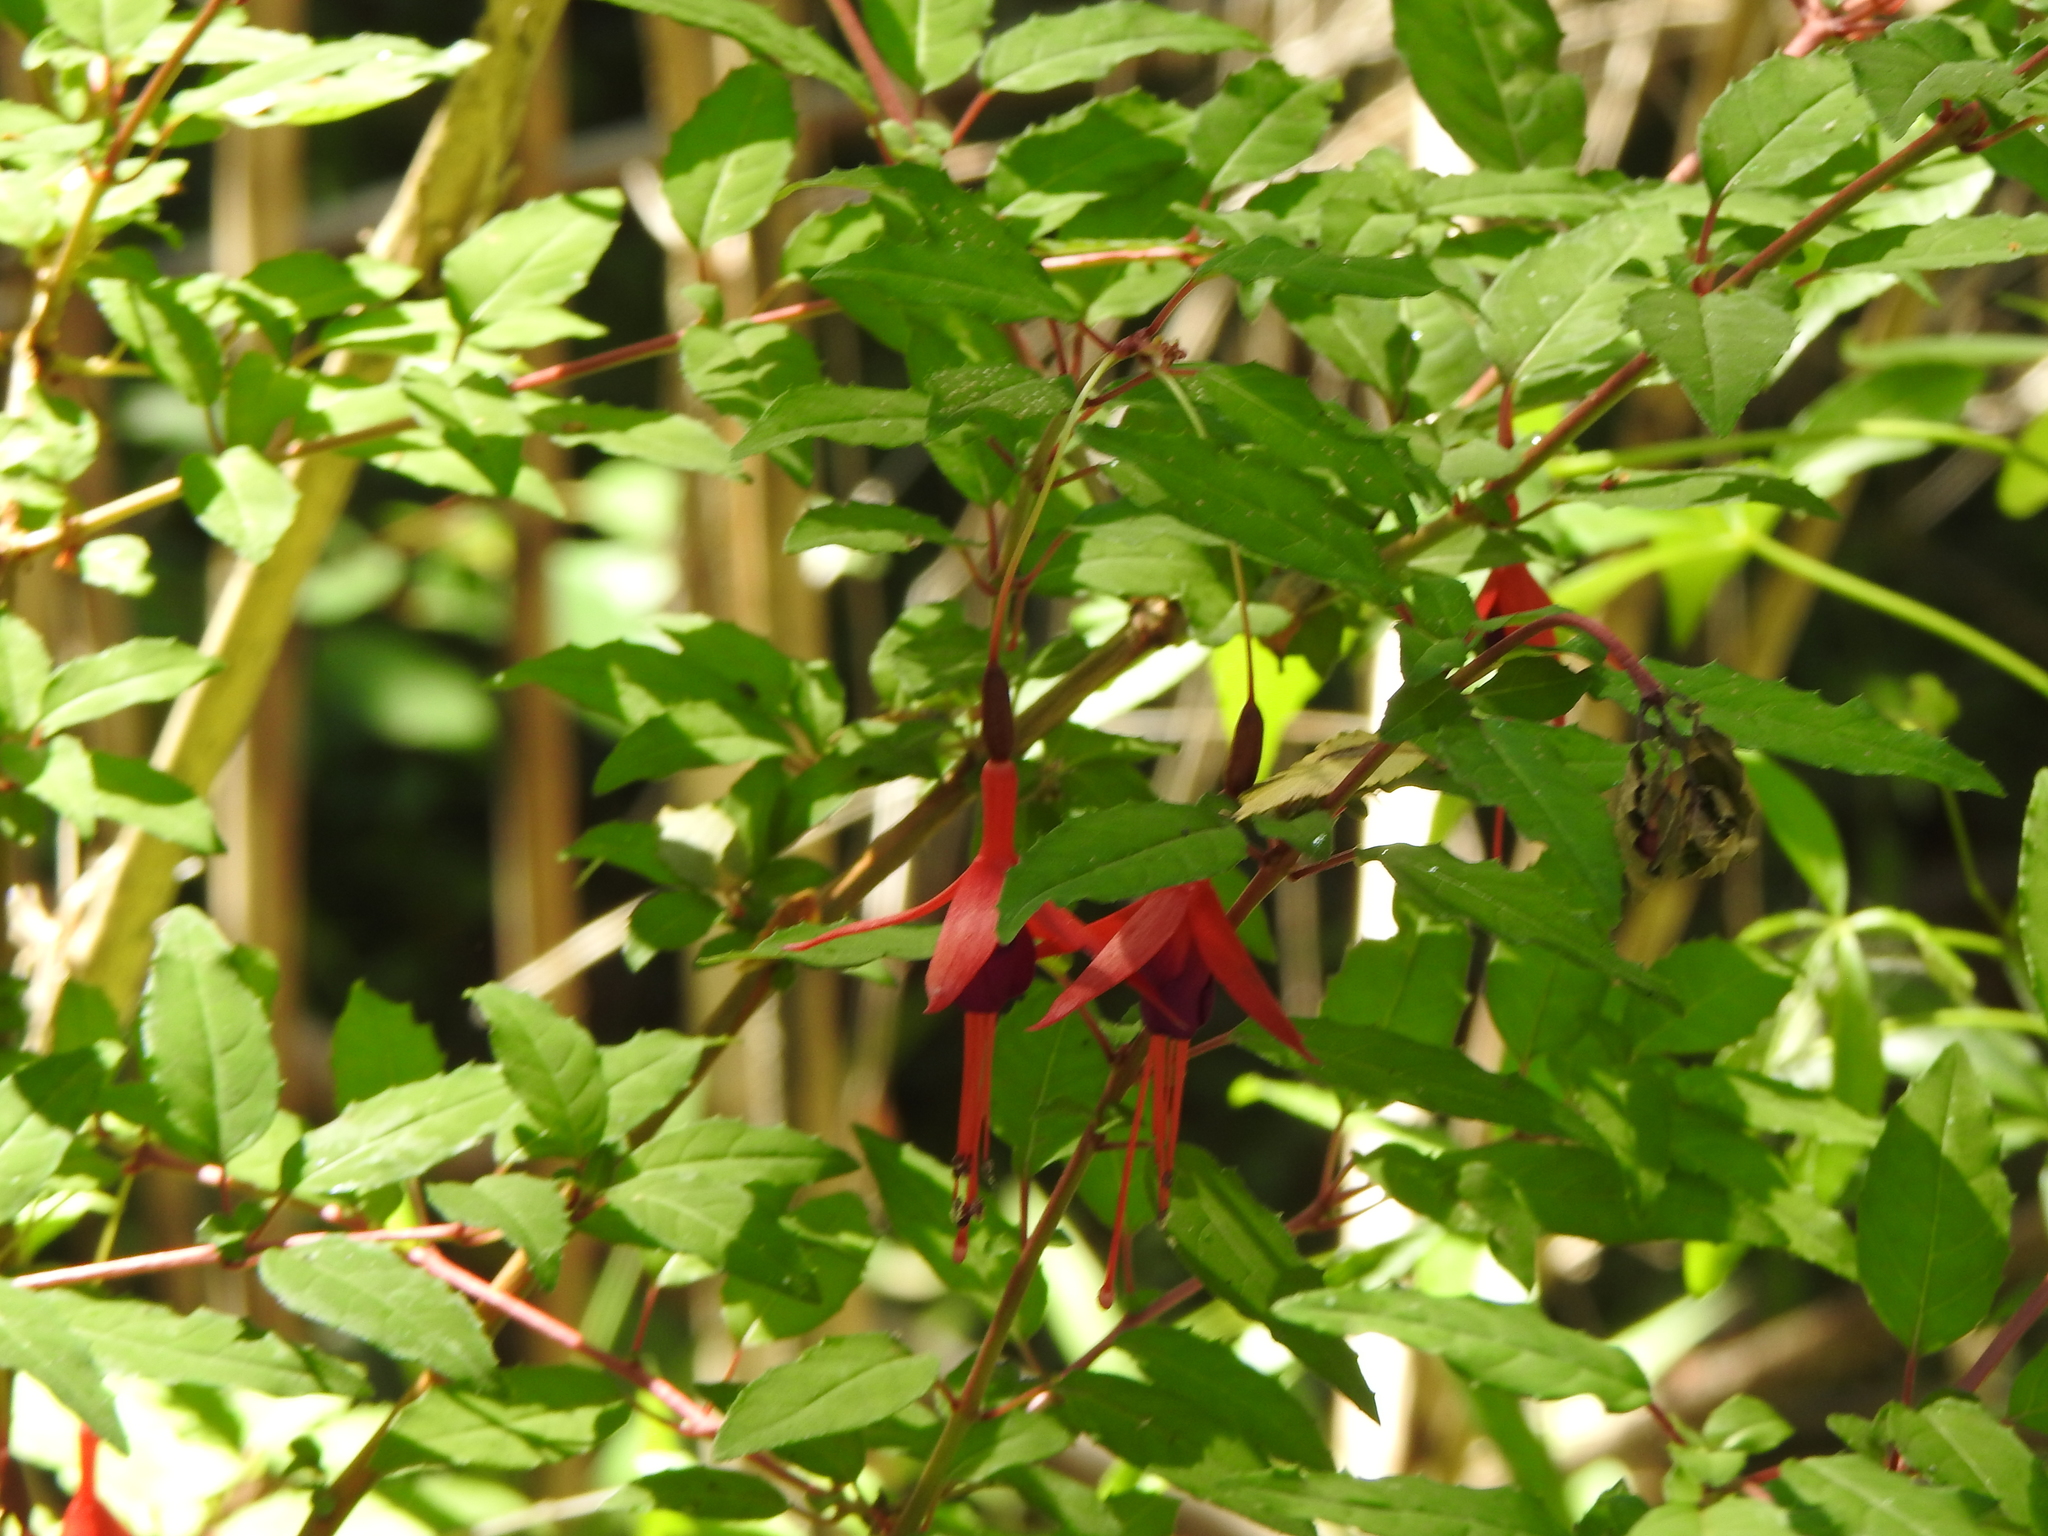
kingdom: Plantae
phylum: Tracheophyta
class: Magnoliopsida
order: Myrtales
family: Onagraceae
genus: Fuchsia
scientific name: Fuchsia magellanica
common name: Hardy fuchsia
